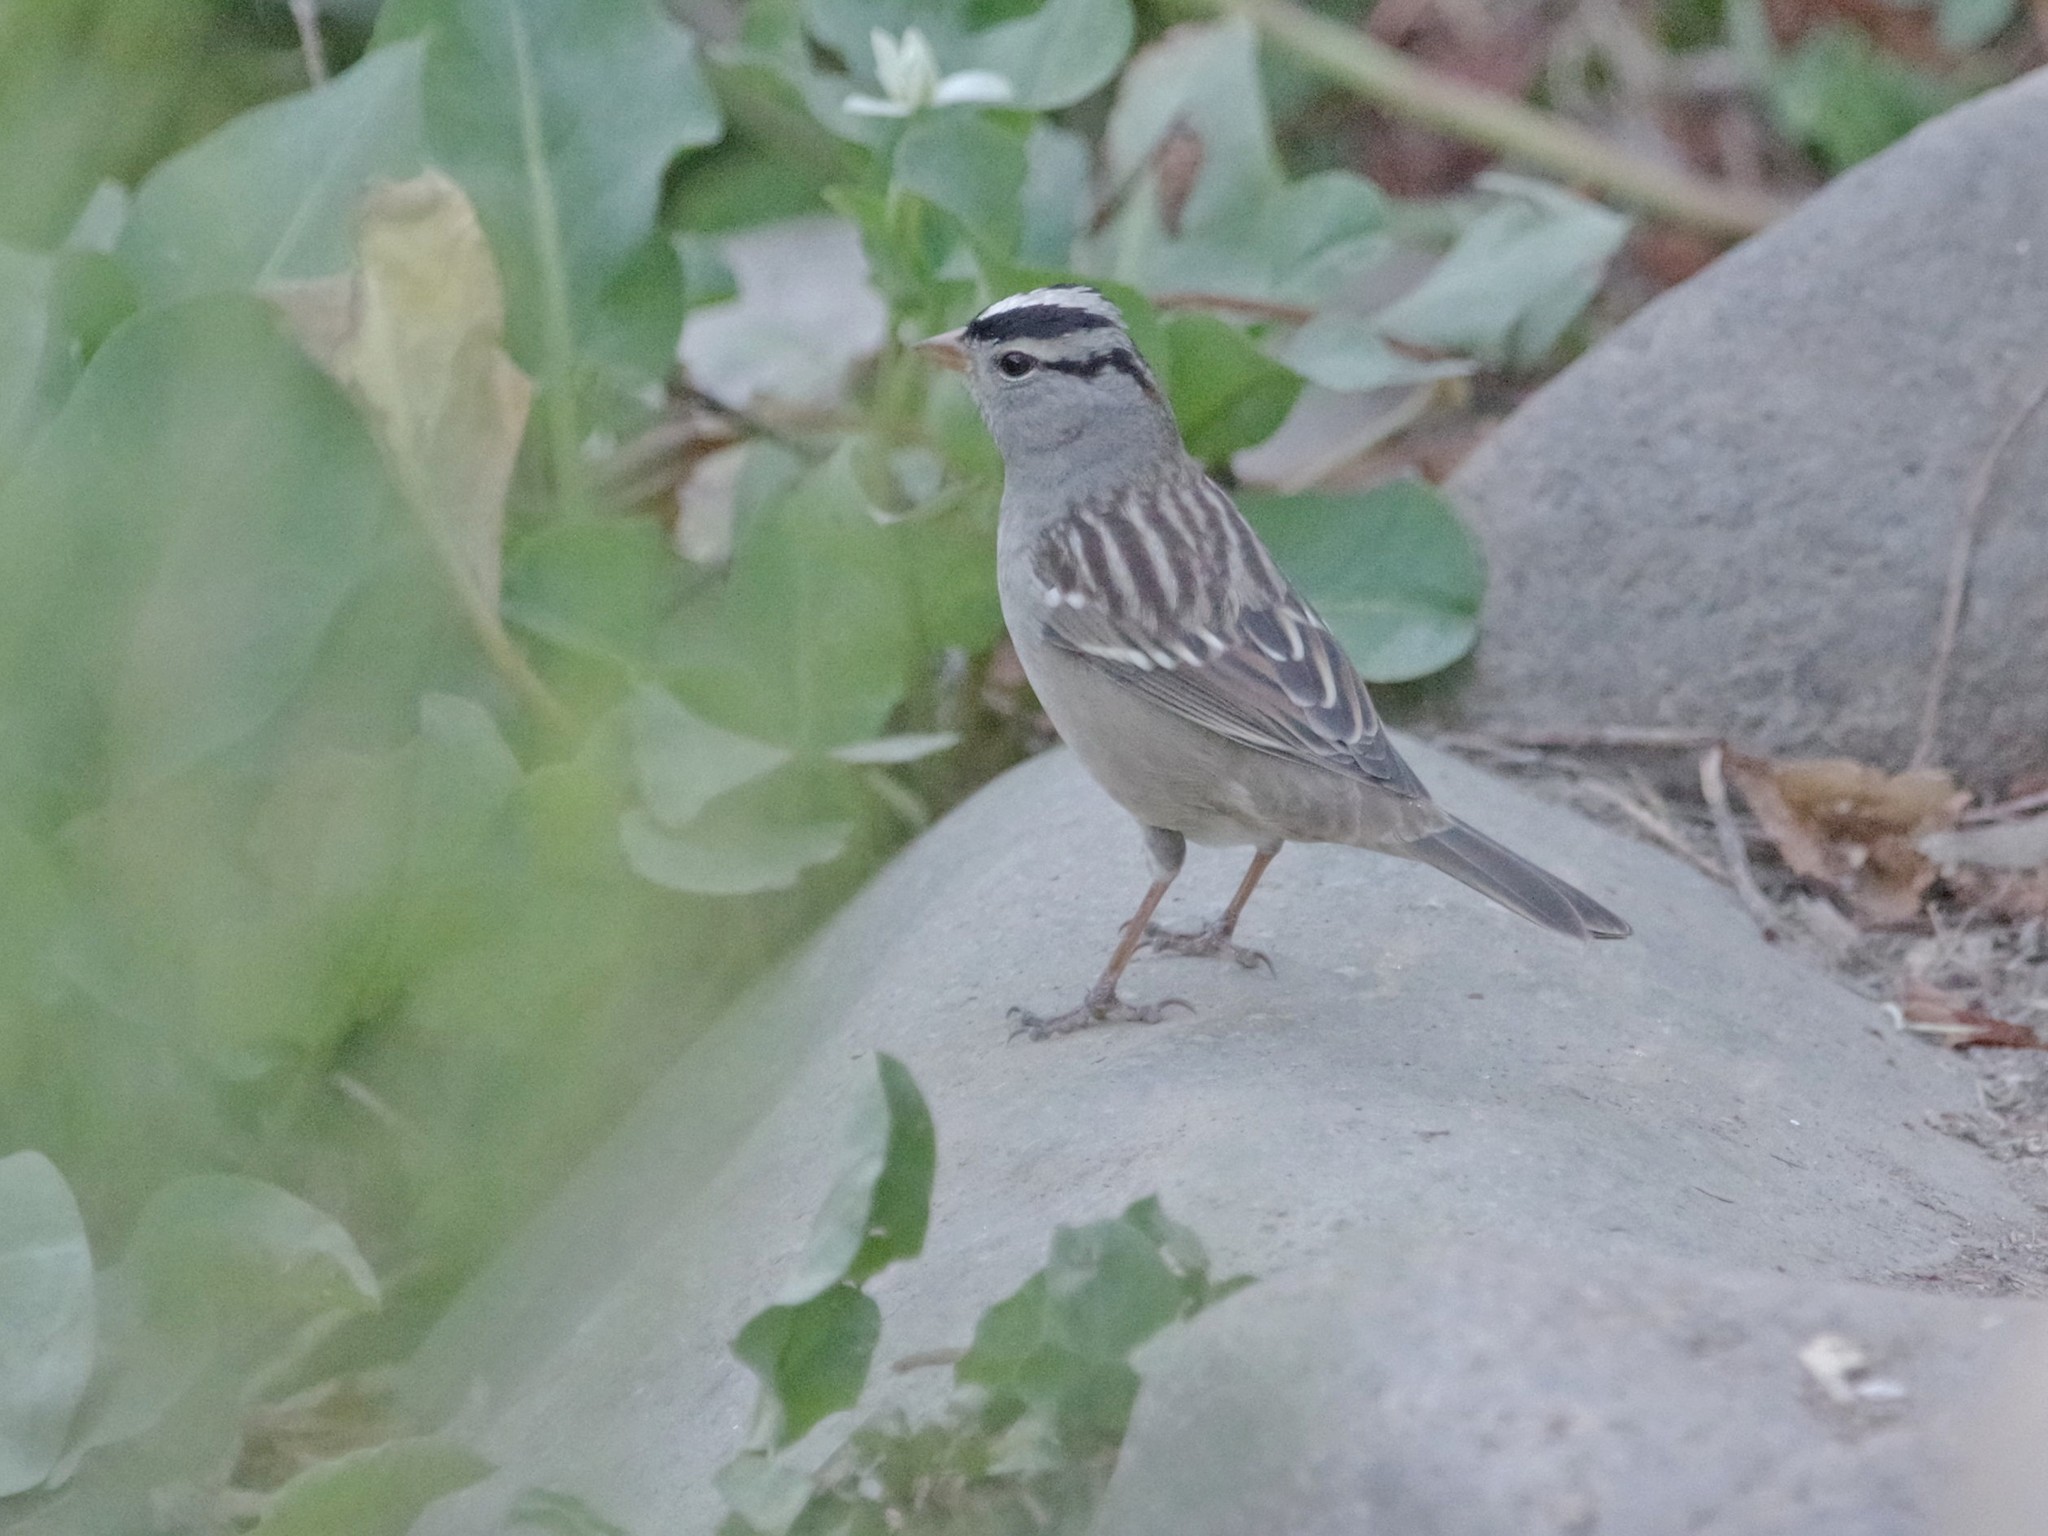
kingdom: Animalia
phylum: Chordata
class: Aves
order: Passeriformes
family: Passerellidae
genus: Zonotrichia
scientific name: Zonotrichia leucophrys
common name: White-crowned sparrow
